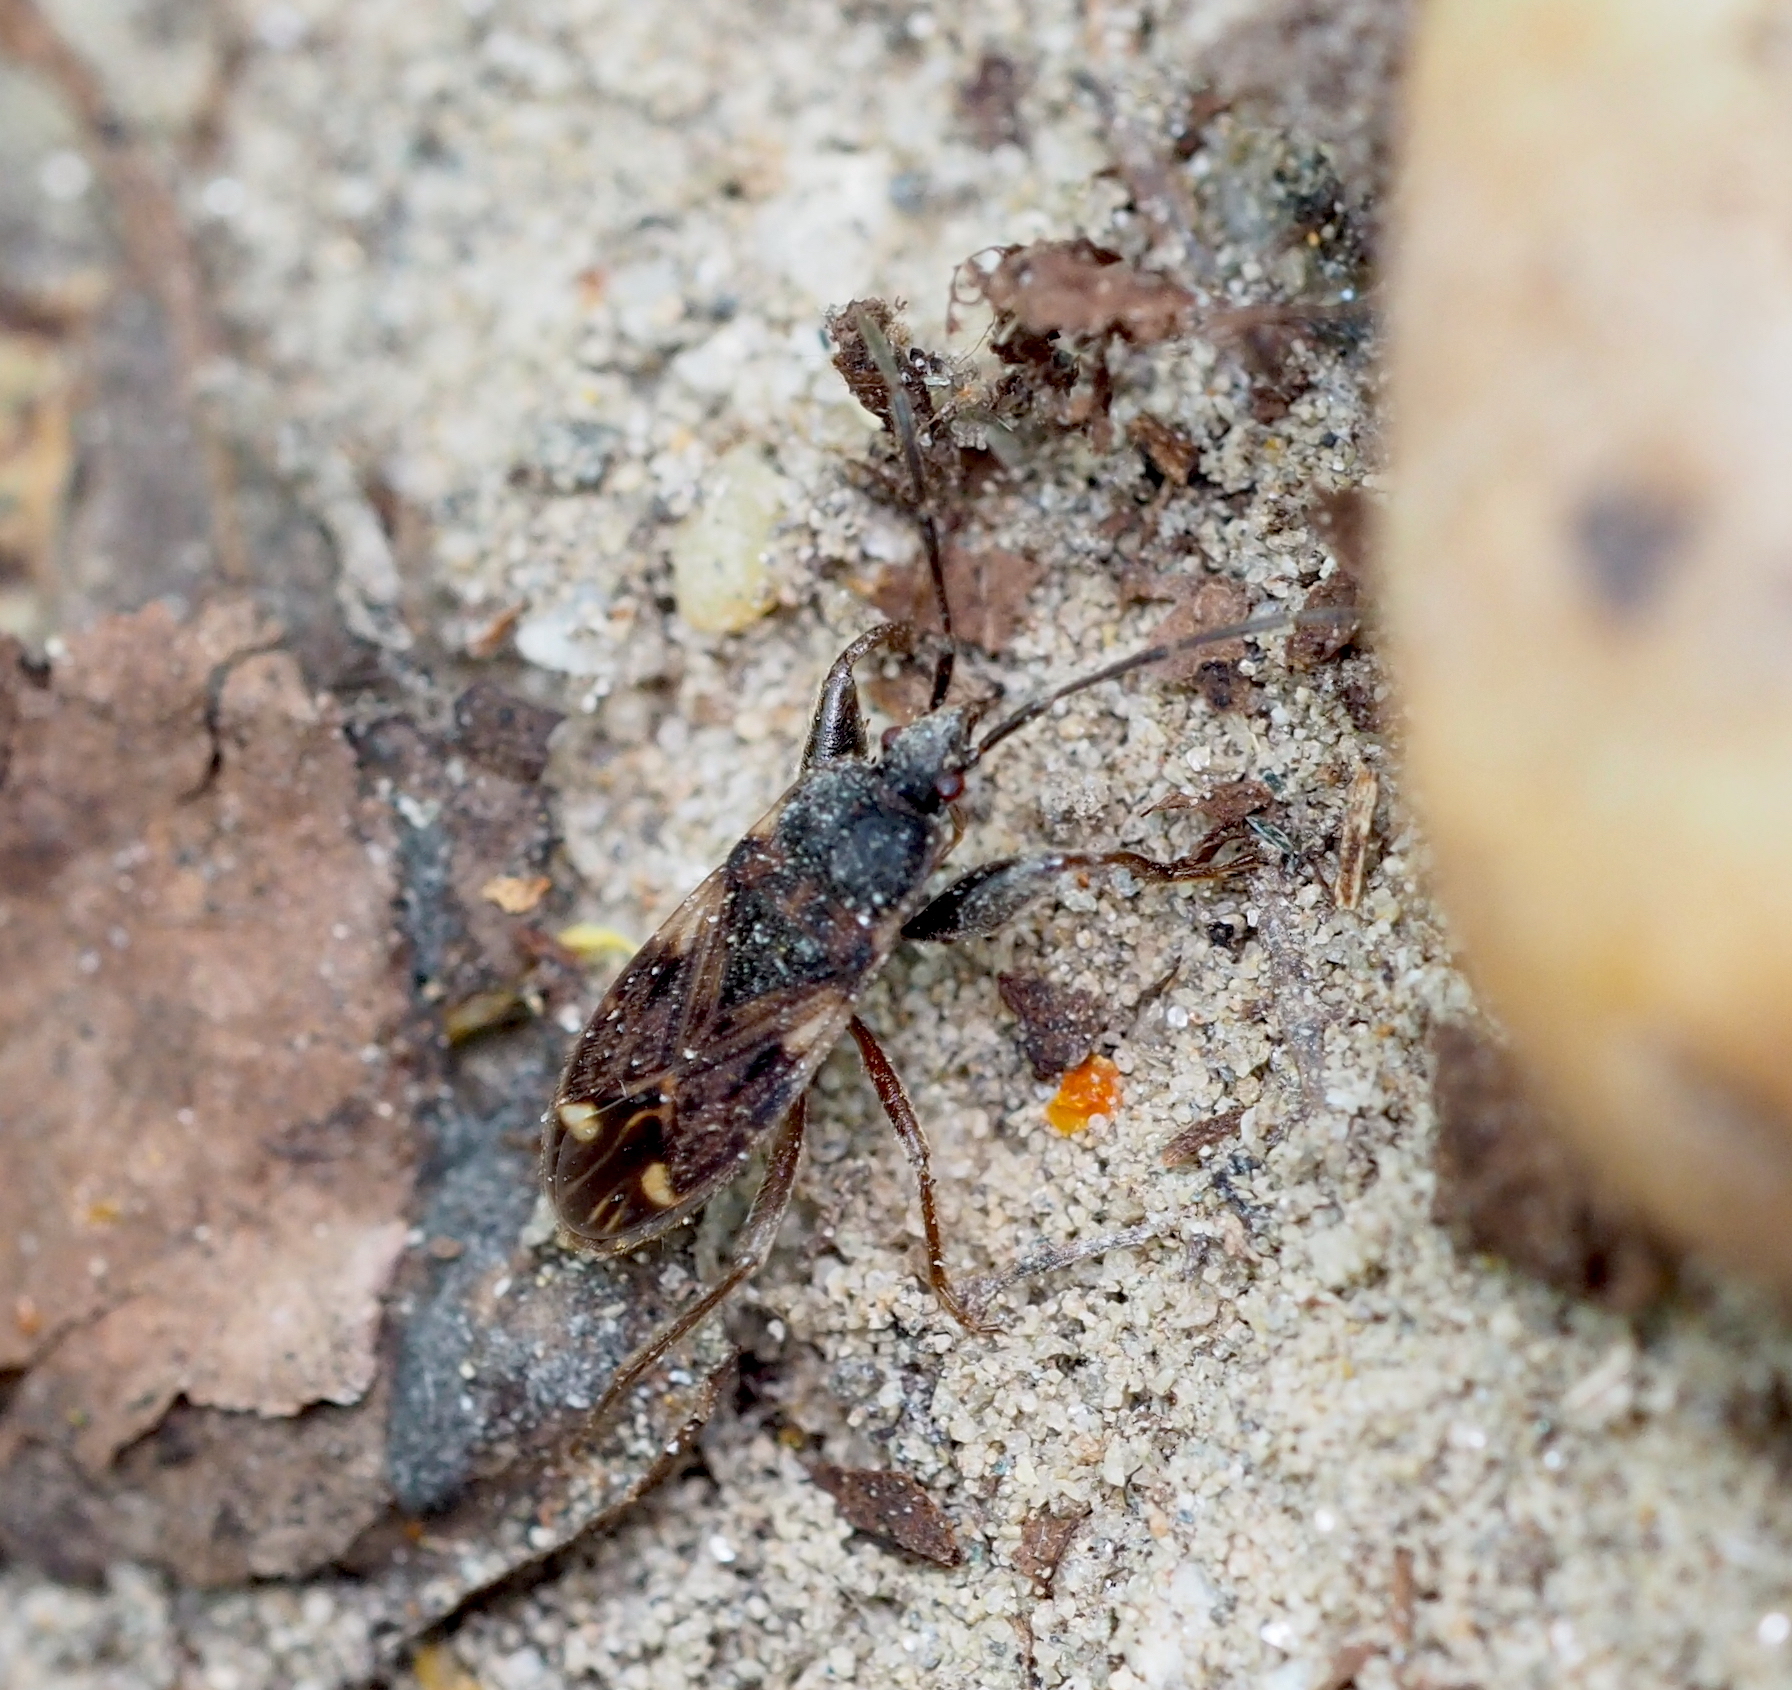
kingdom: Animalia
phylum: Arthropoda
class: Insecta
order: Hemiptera
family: Rhyparochromidae
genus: Eremocoris
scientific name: Eremocoris podagricus
